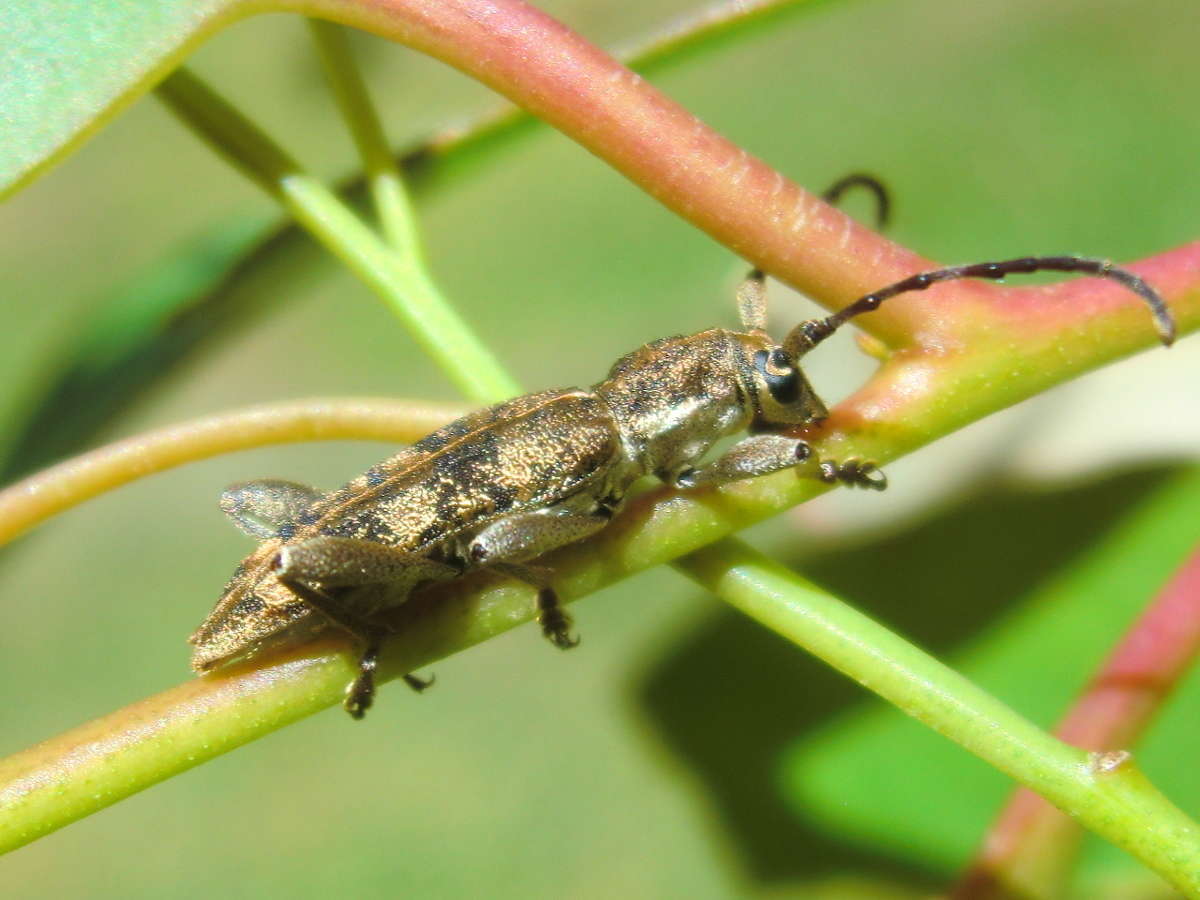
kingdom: Animalia
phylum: Arthropoda
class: Insecta
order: Coleoptera
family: Cerambycidae
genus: Pempsamacra
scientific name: Pempsamacra dispersa
